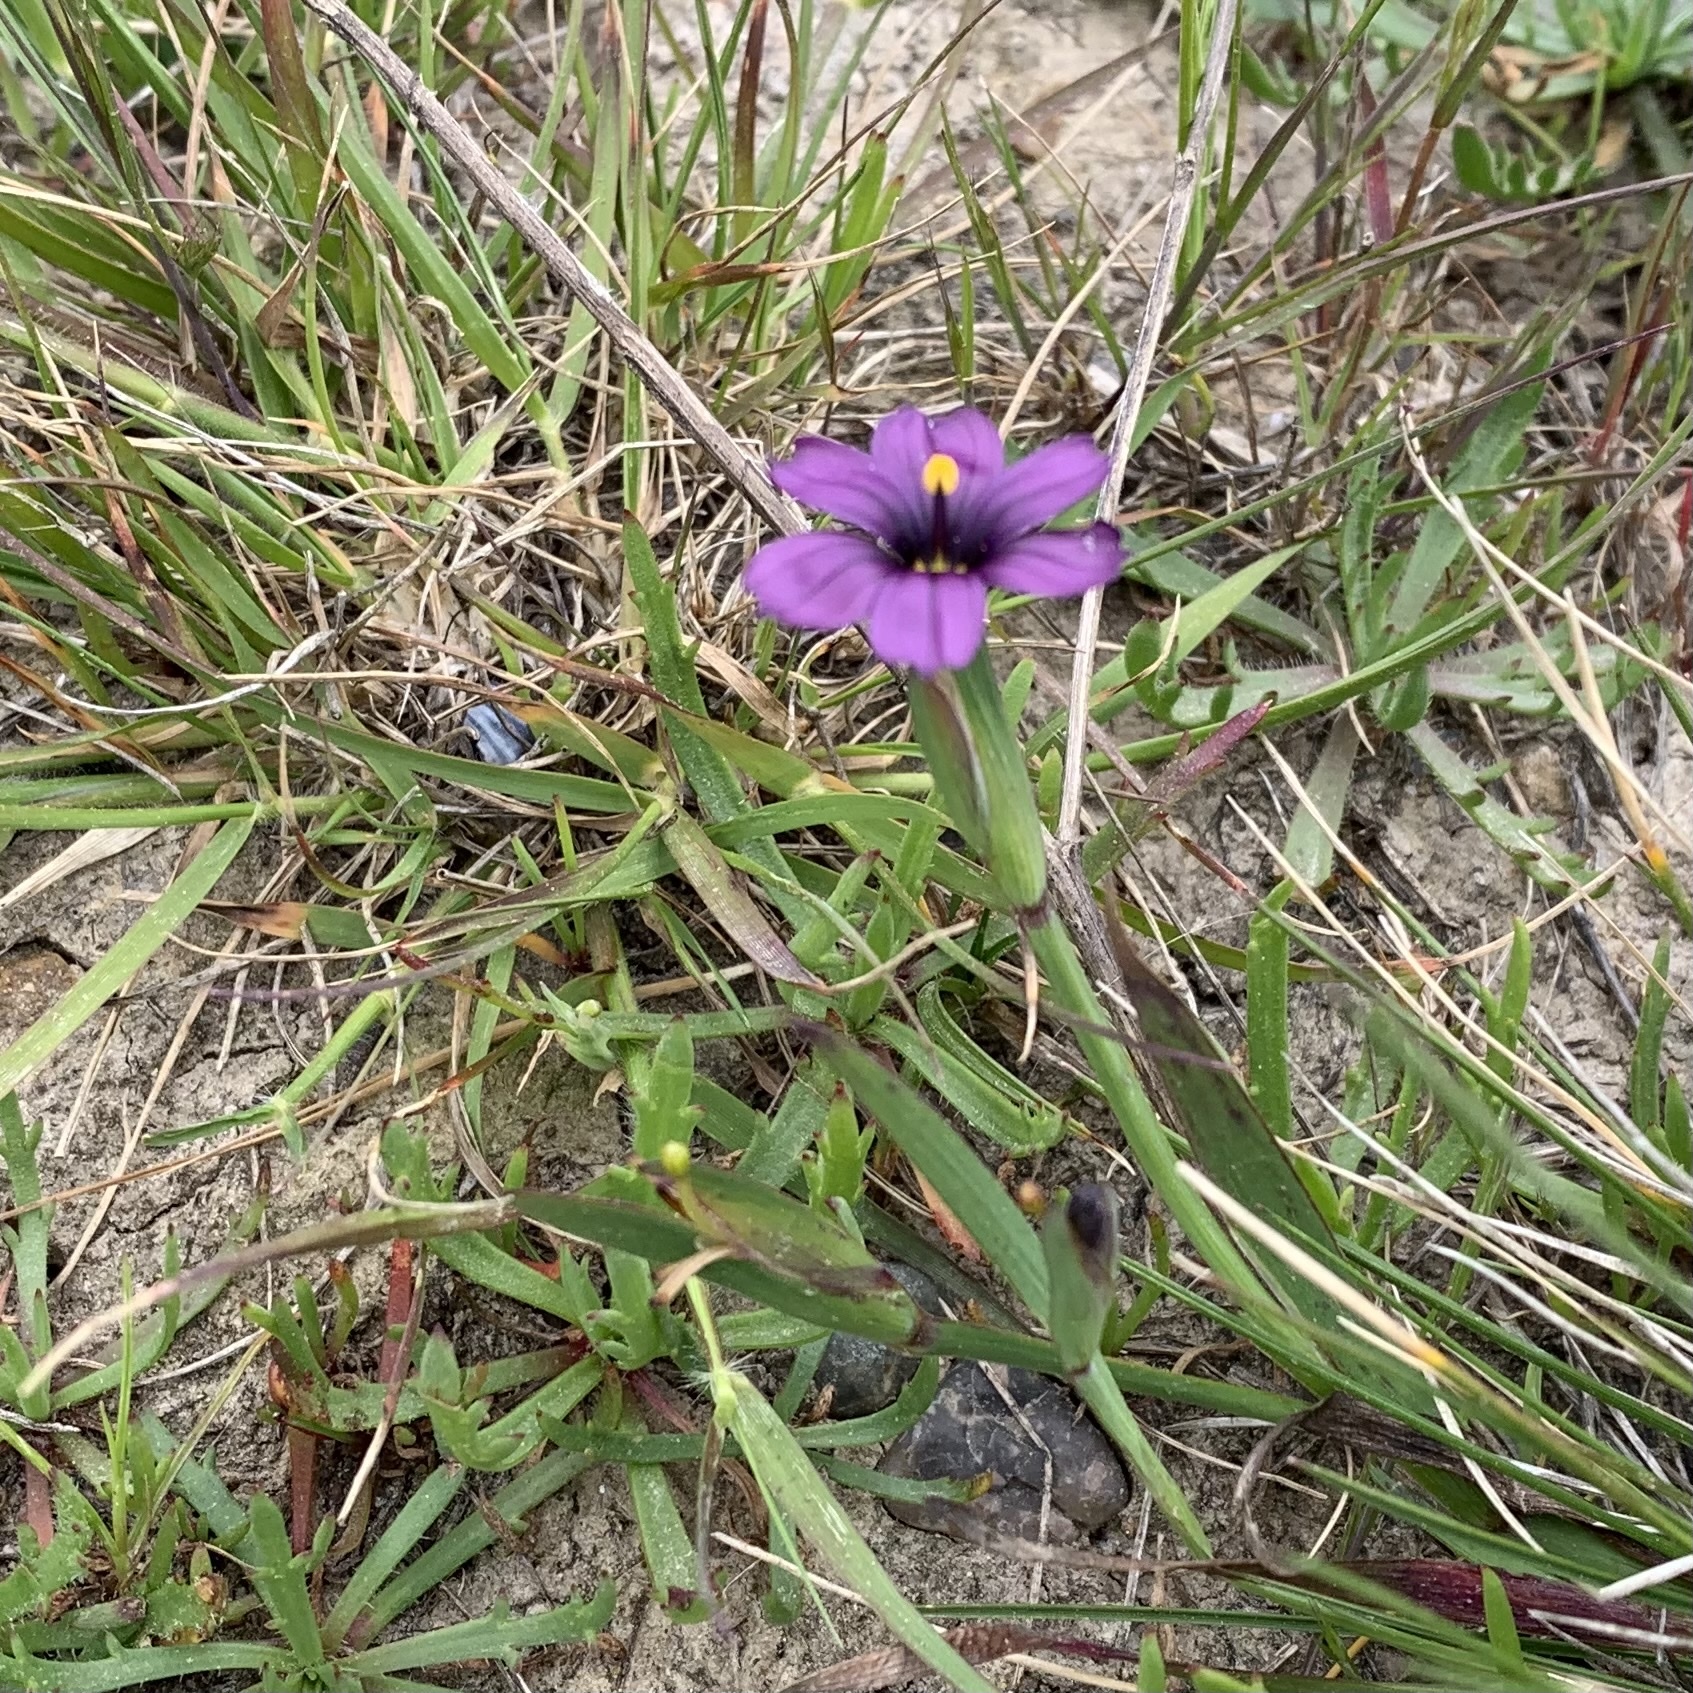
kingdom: Plantae
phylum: Tracheophyta
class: Liliopsida
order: Asparagales
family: Iridaceae
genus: Sisyrinchium
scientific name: Sisyrinchium bellum
